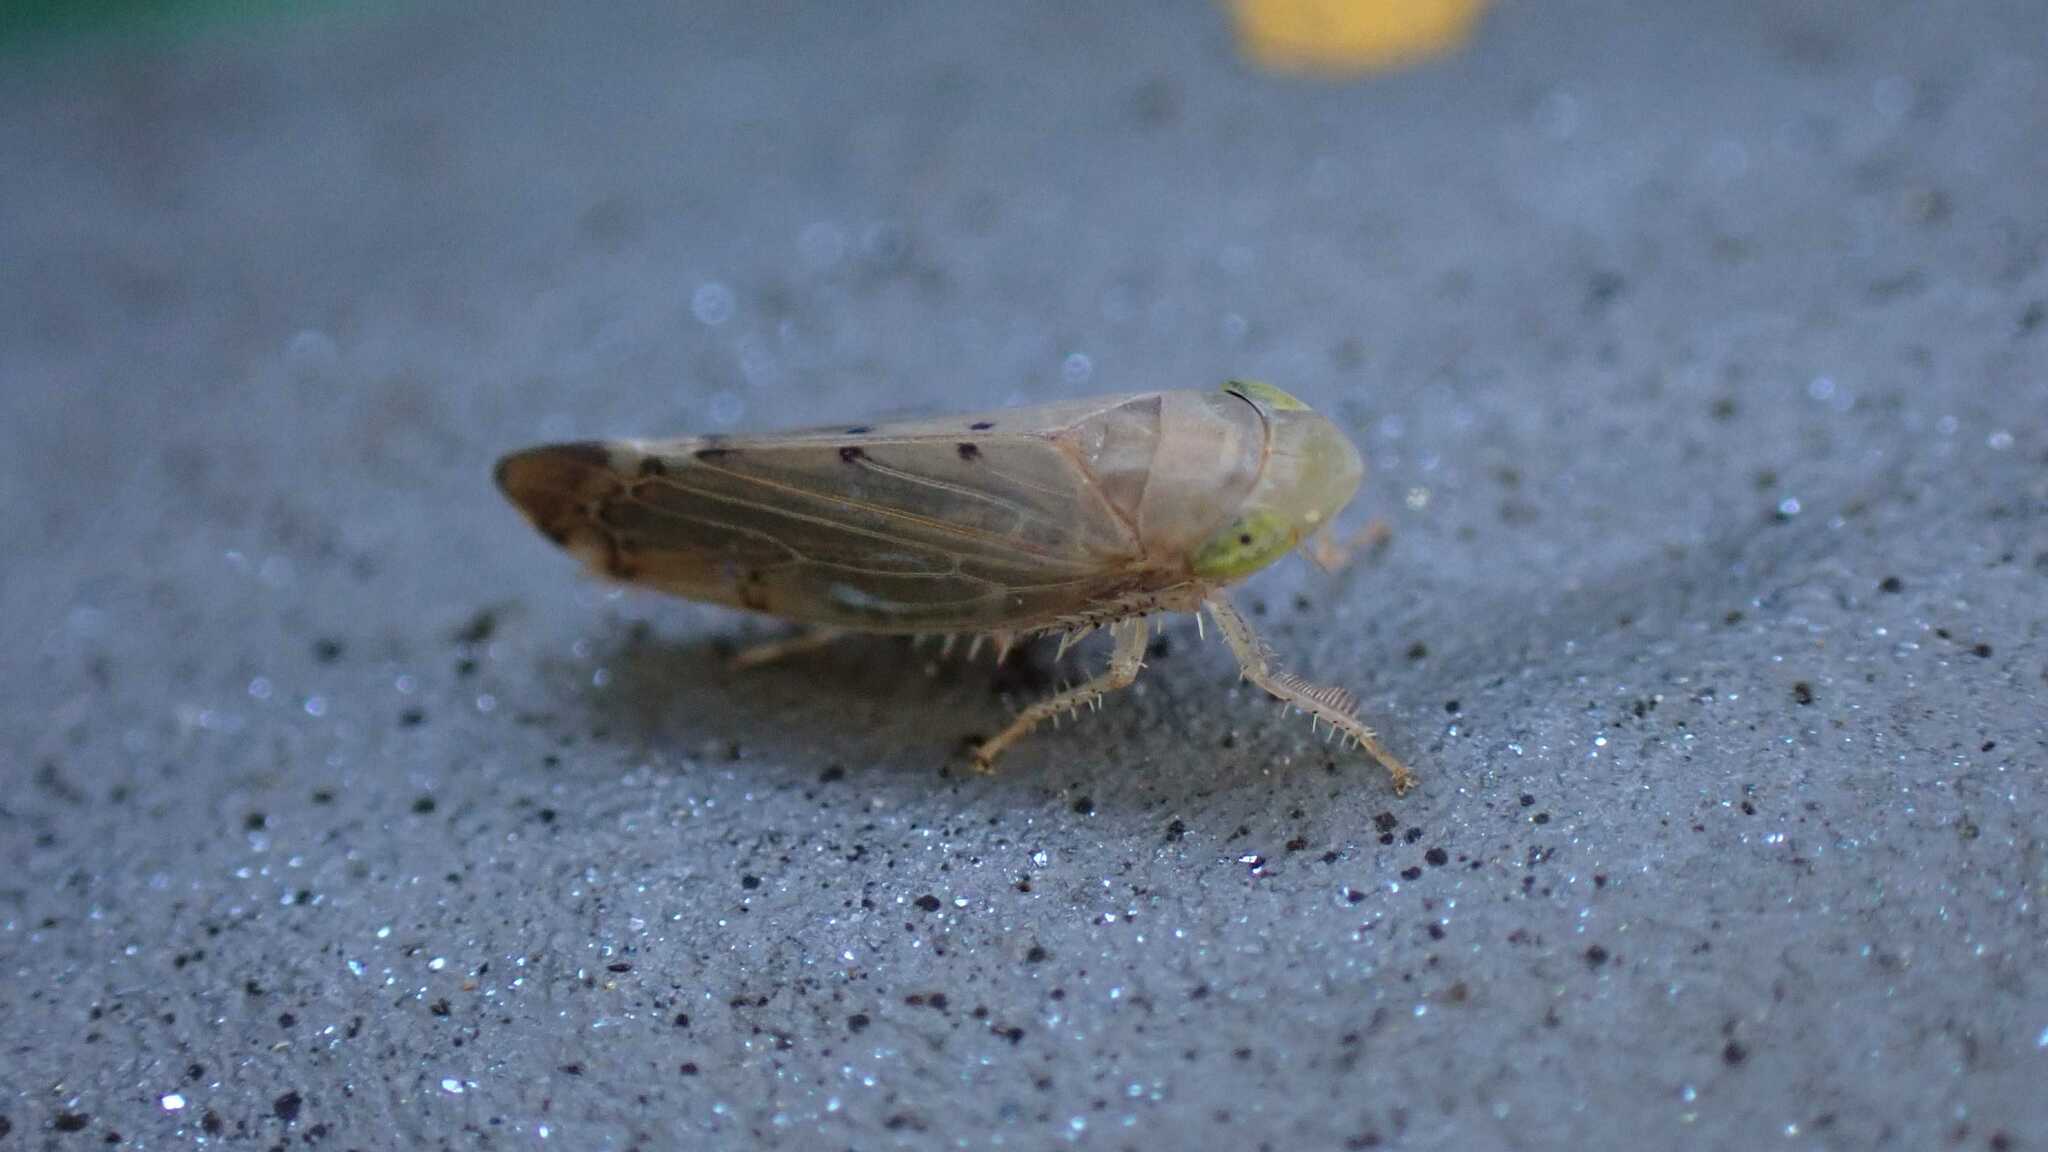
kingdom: Animalia
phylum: Arthropoda
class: Insecta
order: Hemiptera
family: Cicadellidae
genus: Synophropsis
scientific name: Synophropsis lauri
